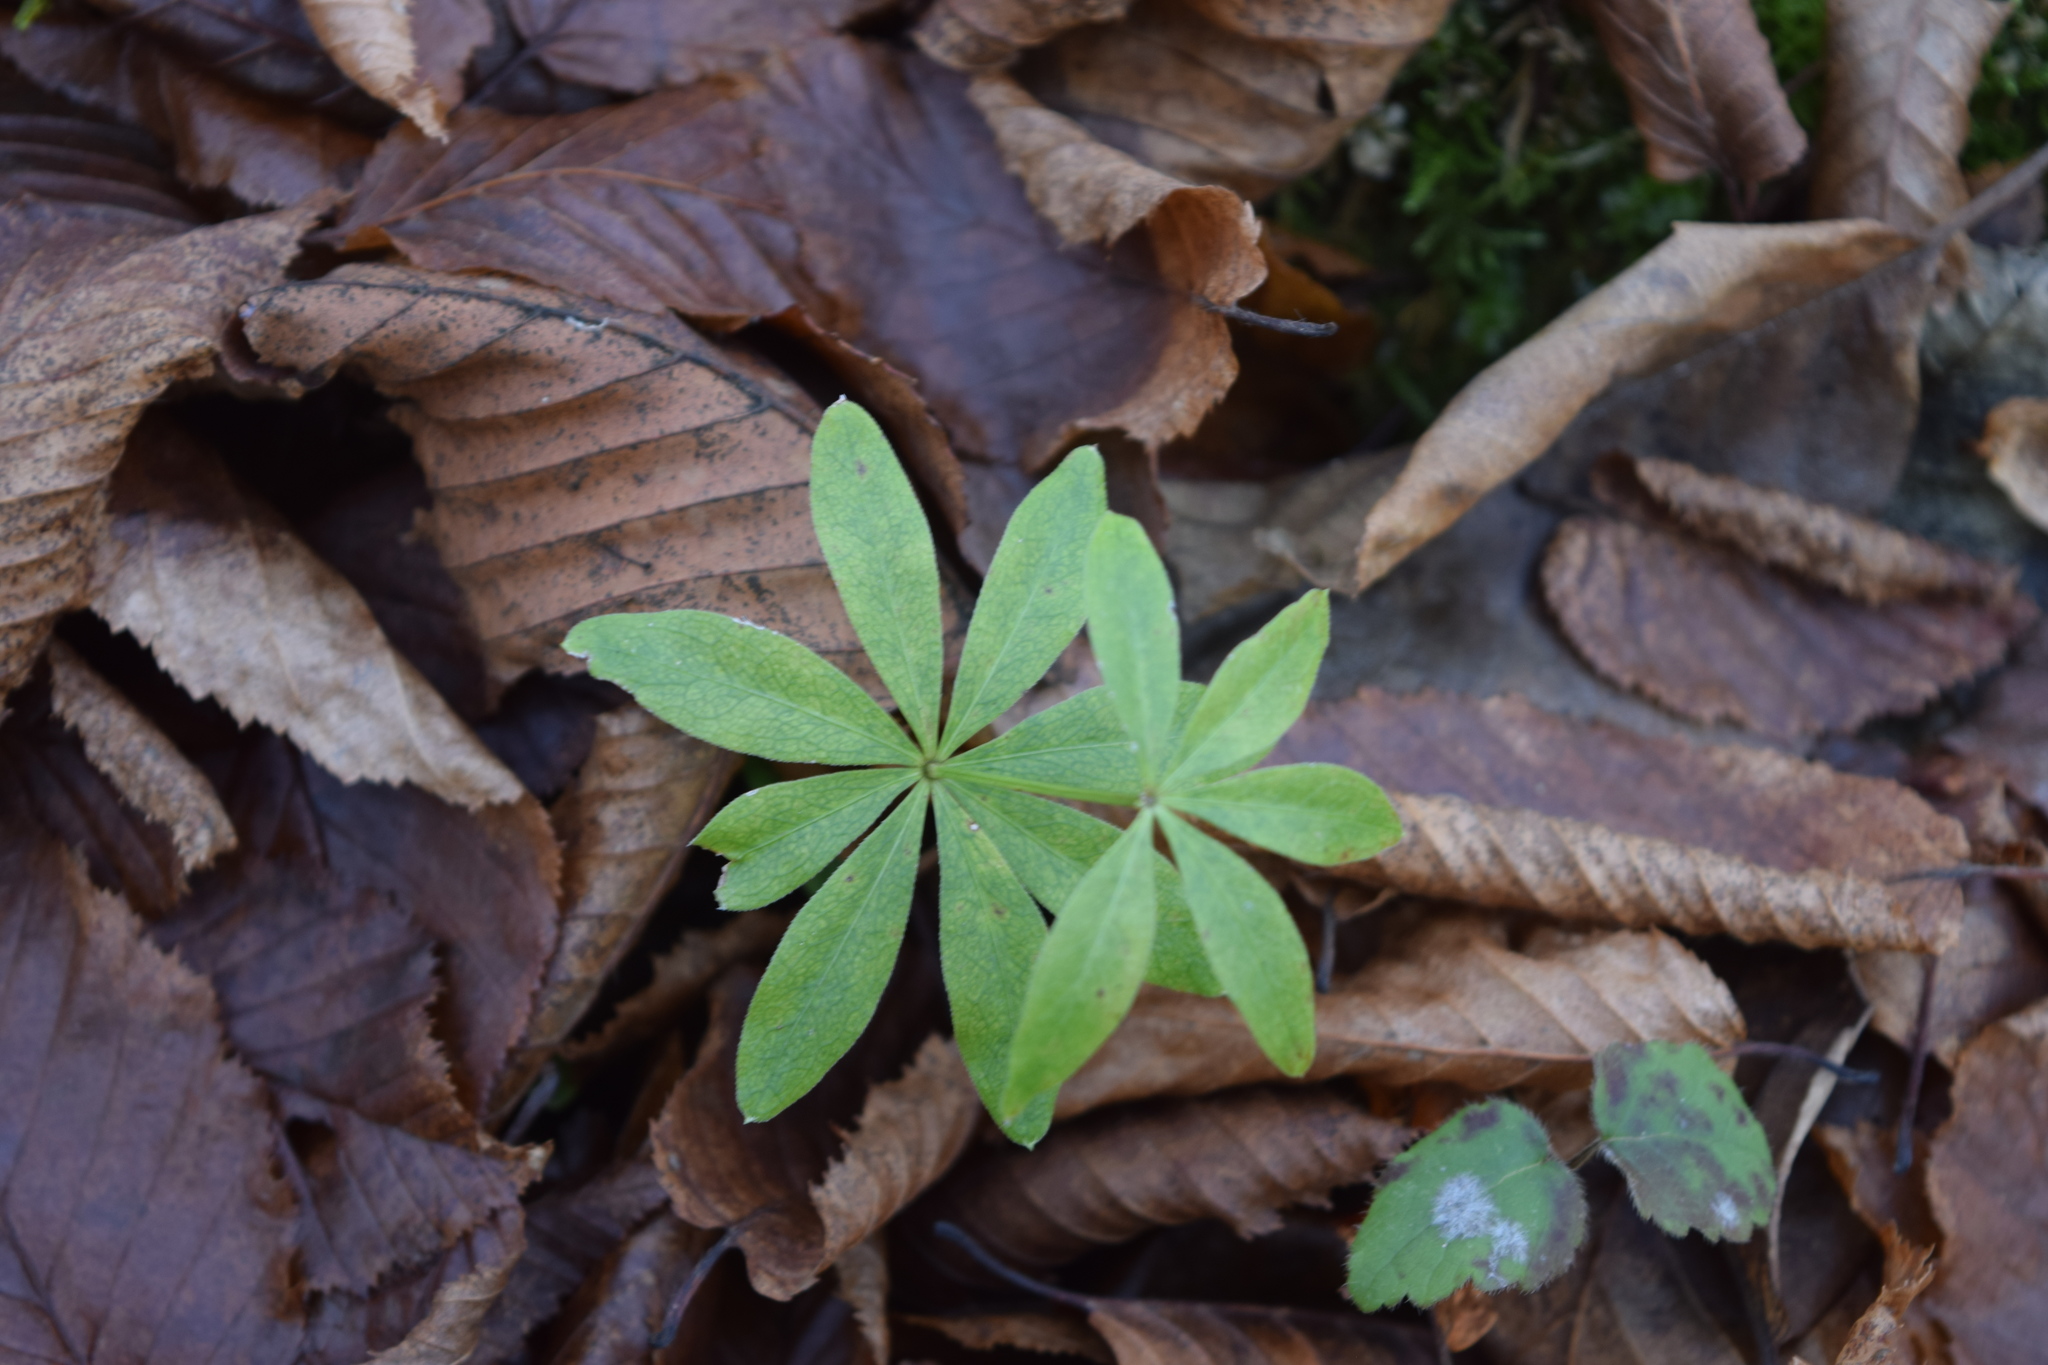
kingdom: Plantae
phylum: Tracheophyta
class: Magnoliopsida
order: Gentianales
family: Rubiaceae
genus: Galium
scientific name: Galium odoratum
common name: Sweet woodruff
